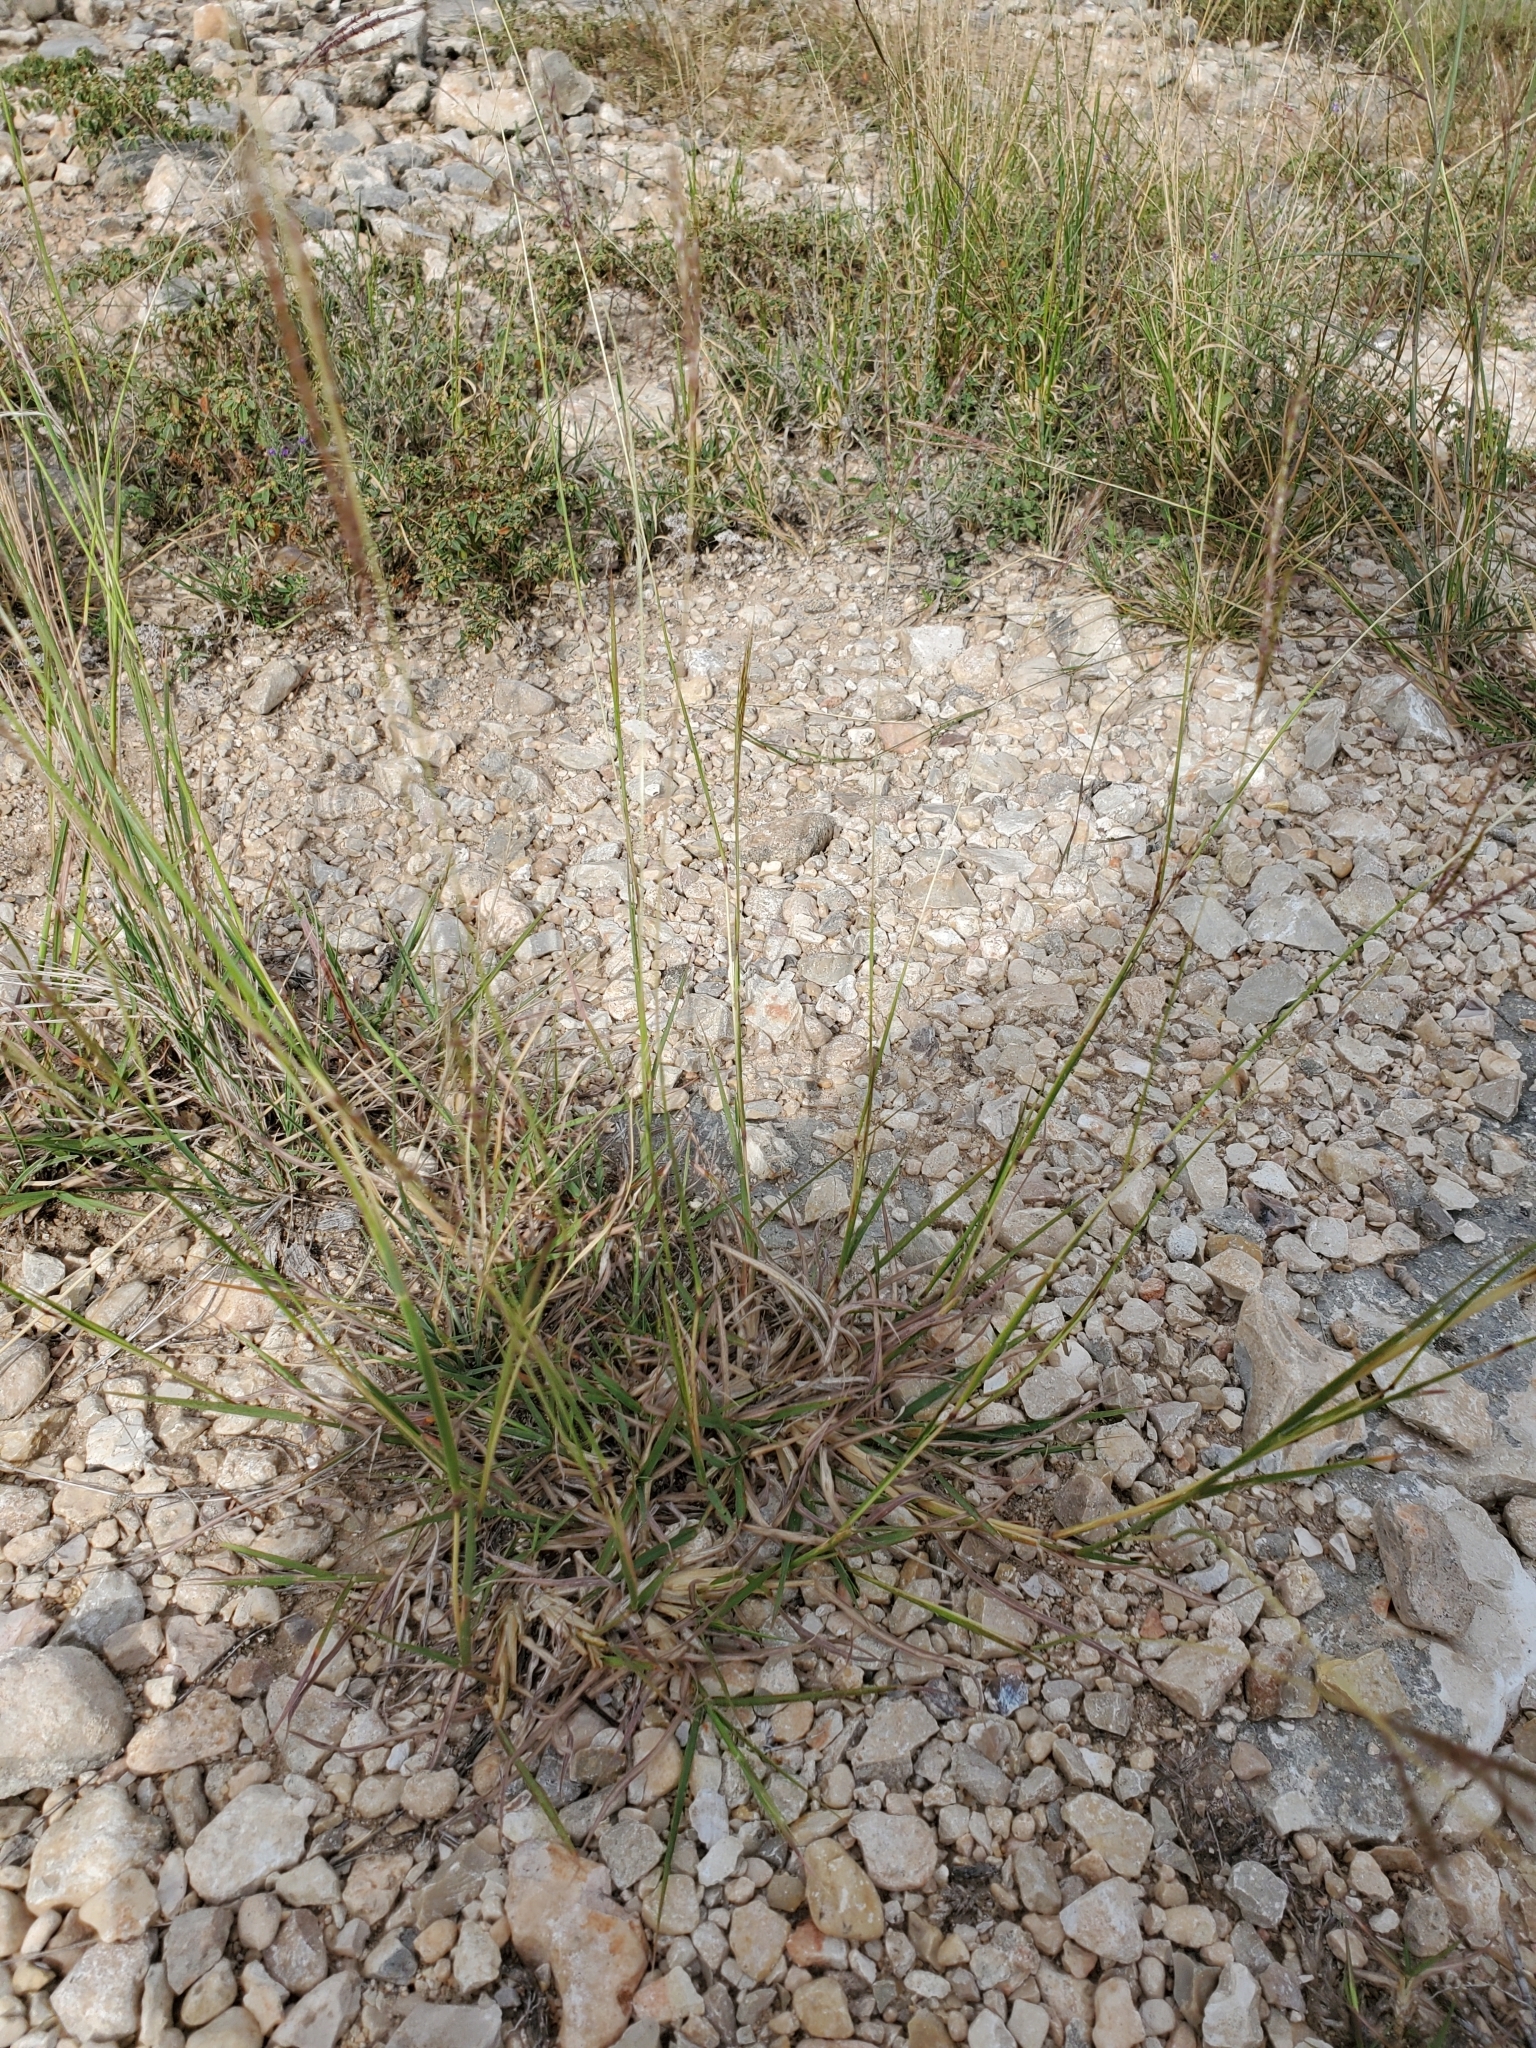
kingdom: Plantae
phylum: Tracheophyta
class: Liliopsida
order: Poales
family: Poaceae
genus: Bothriochloa
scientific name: Bothriochloa ischaemum
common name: Yellow bluestem
